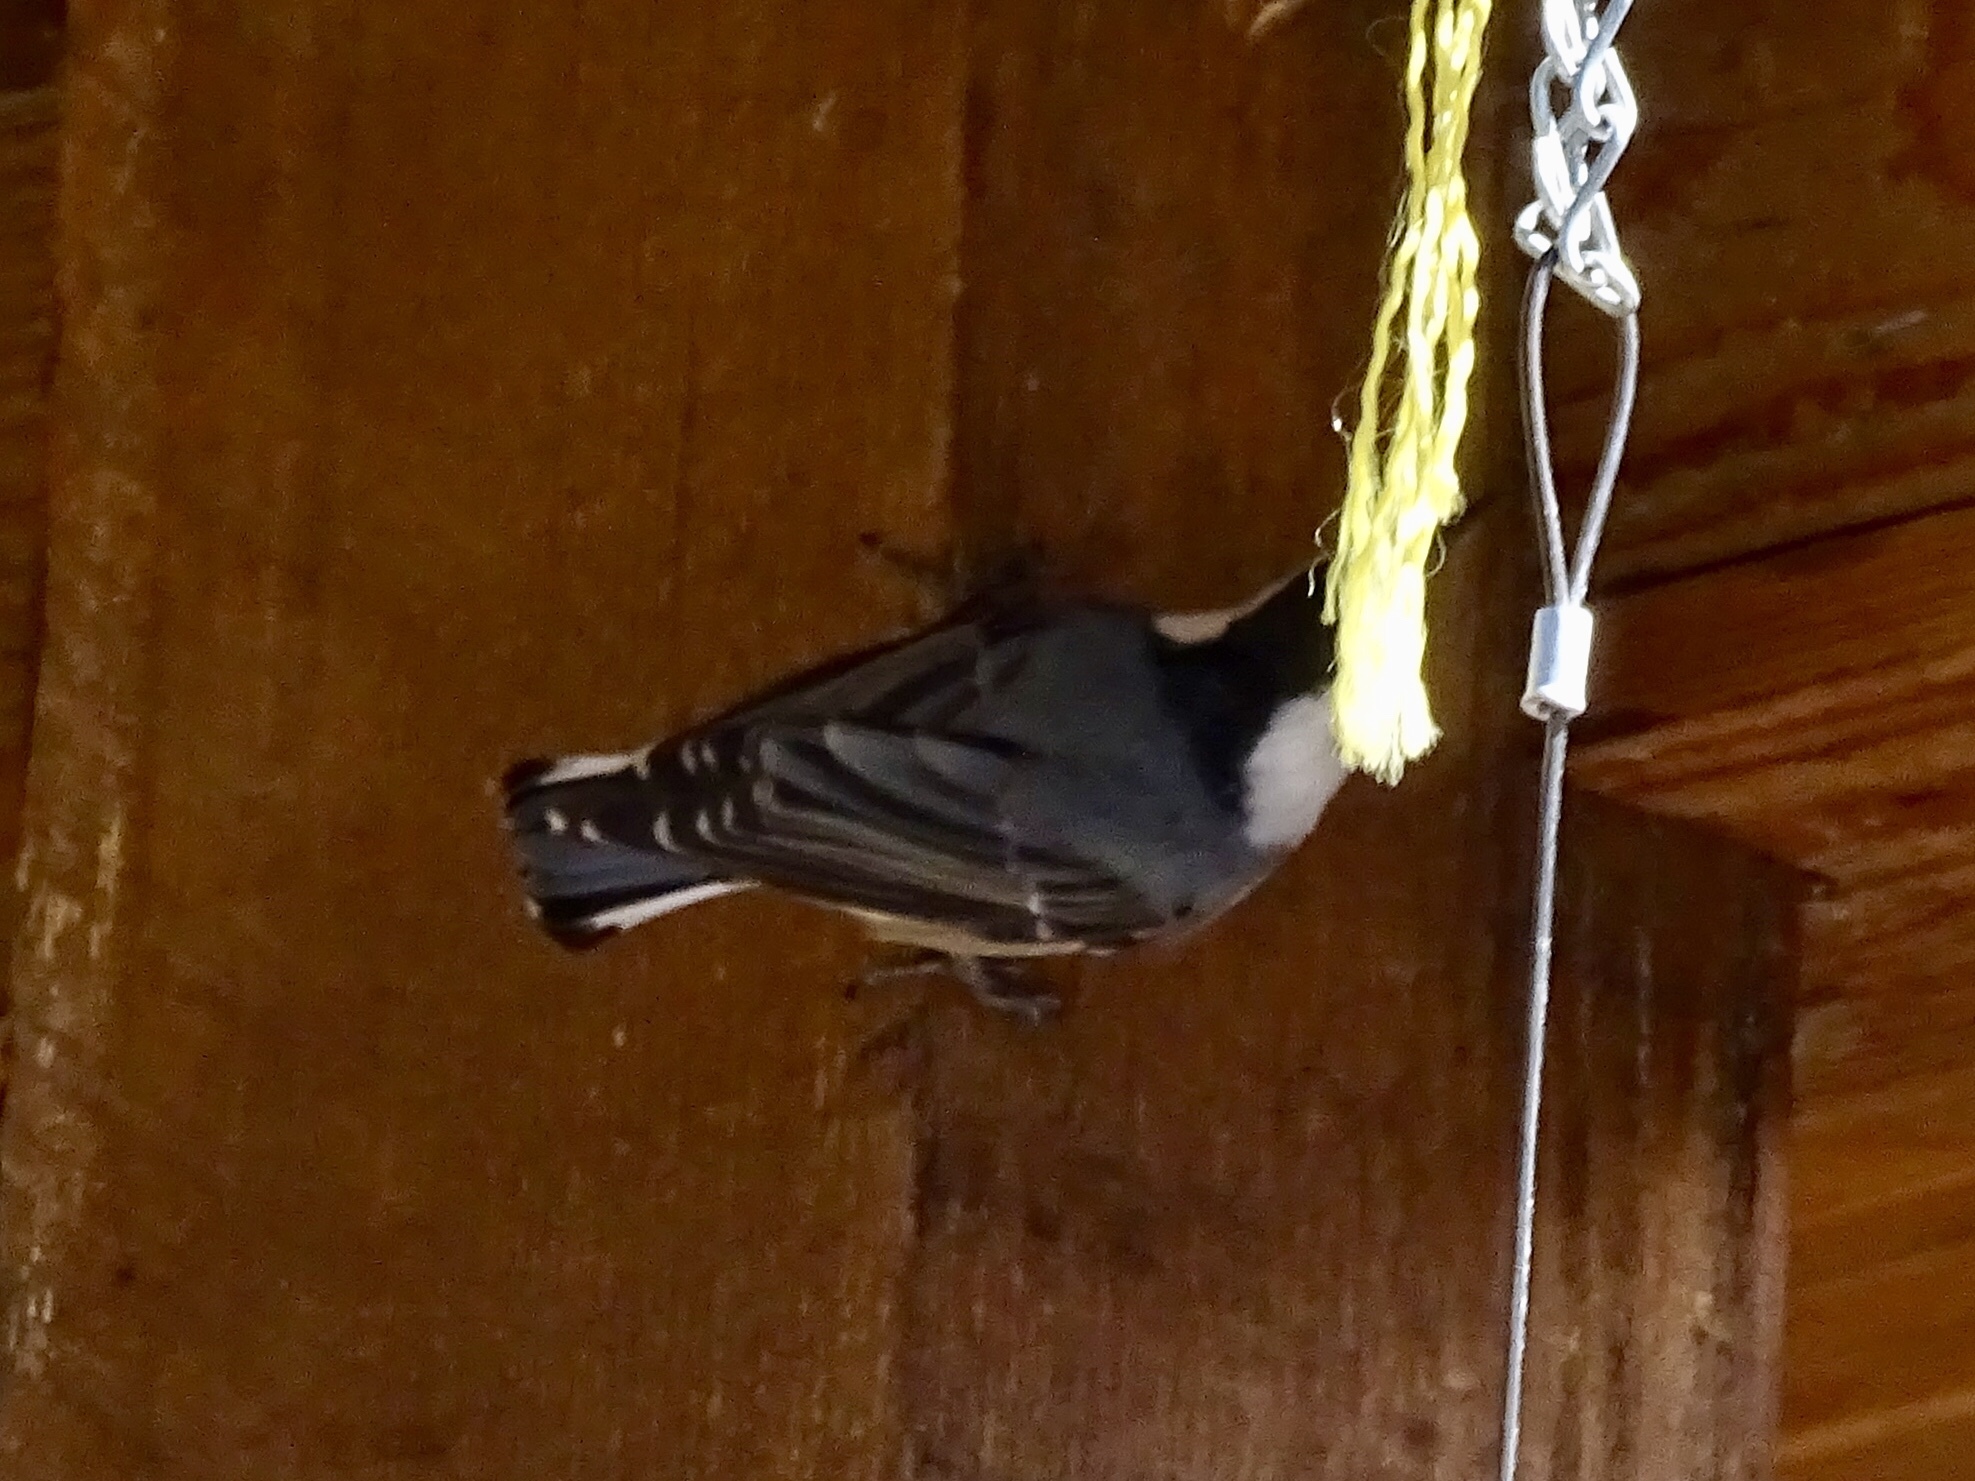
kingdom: Animalia
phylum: Chordata
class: Aves
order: Passeriformes
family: Sittidae
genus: Sitta
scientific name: Sitta carolinensis
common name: White-breasted nuthatch
